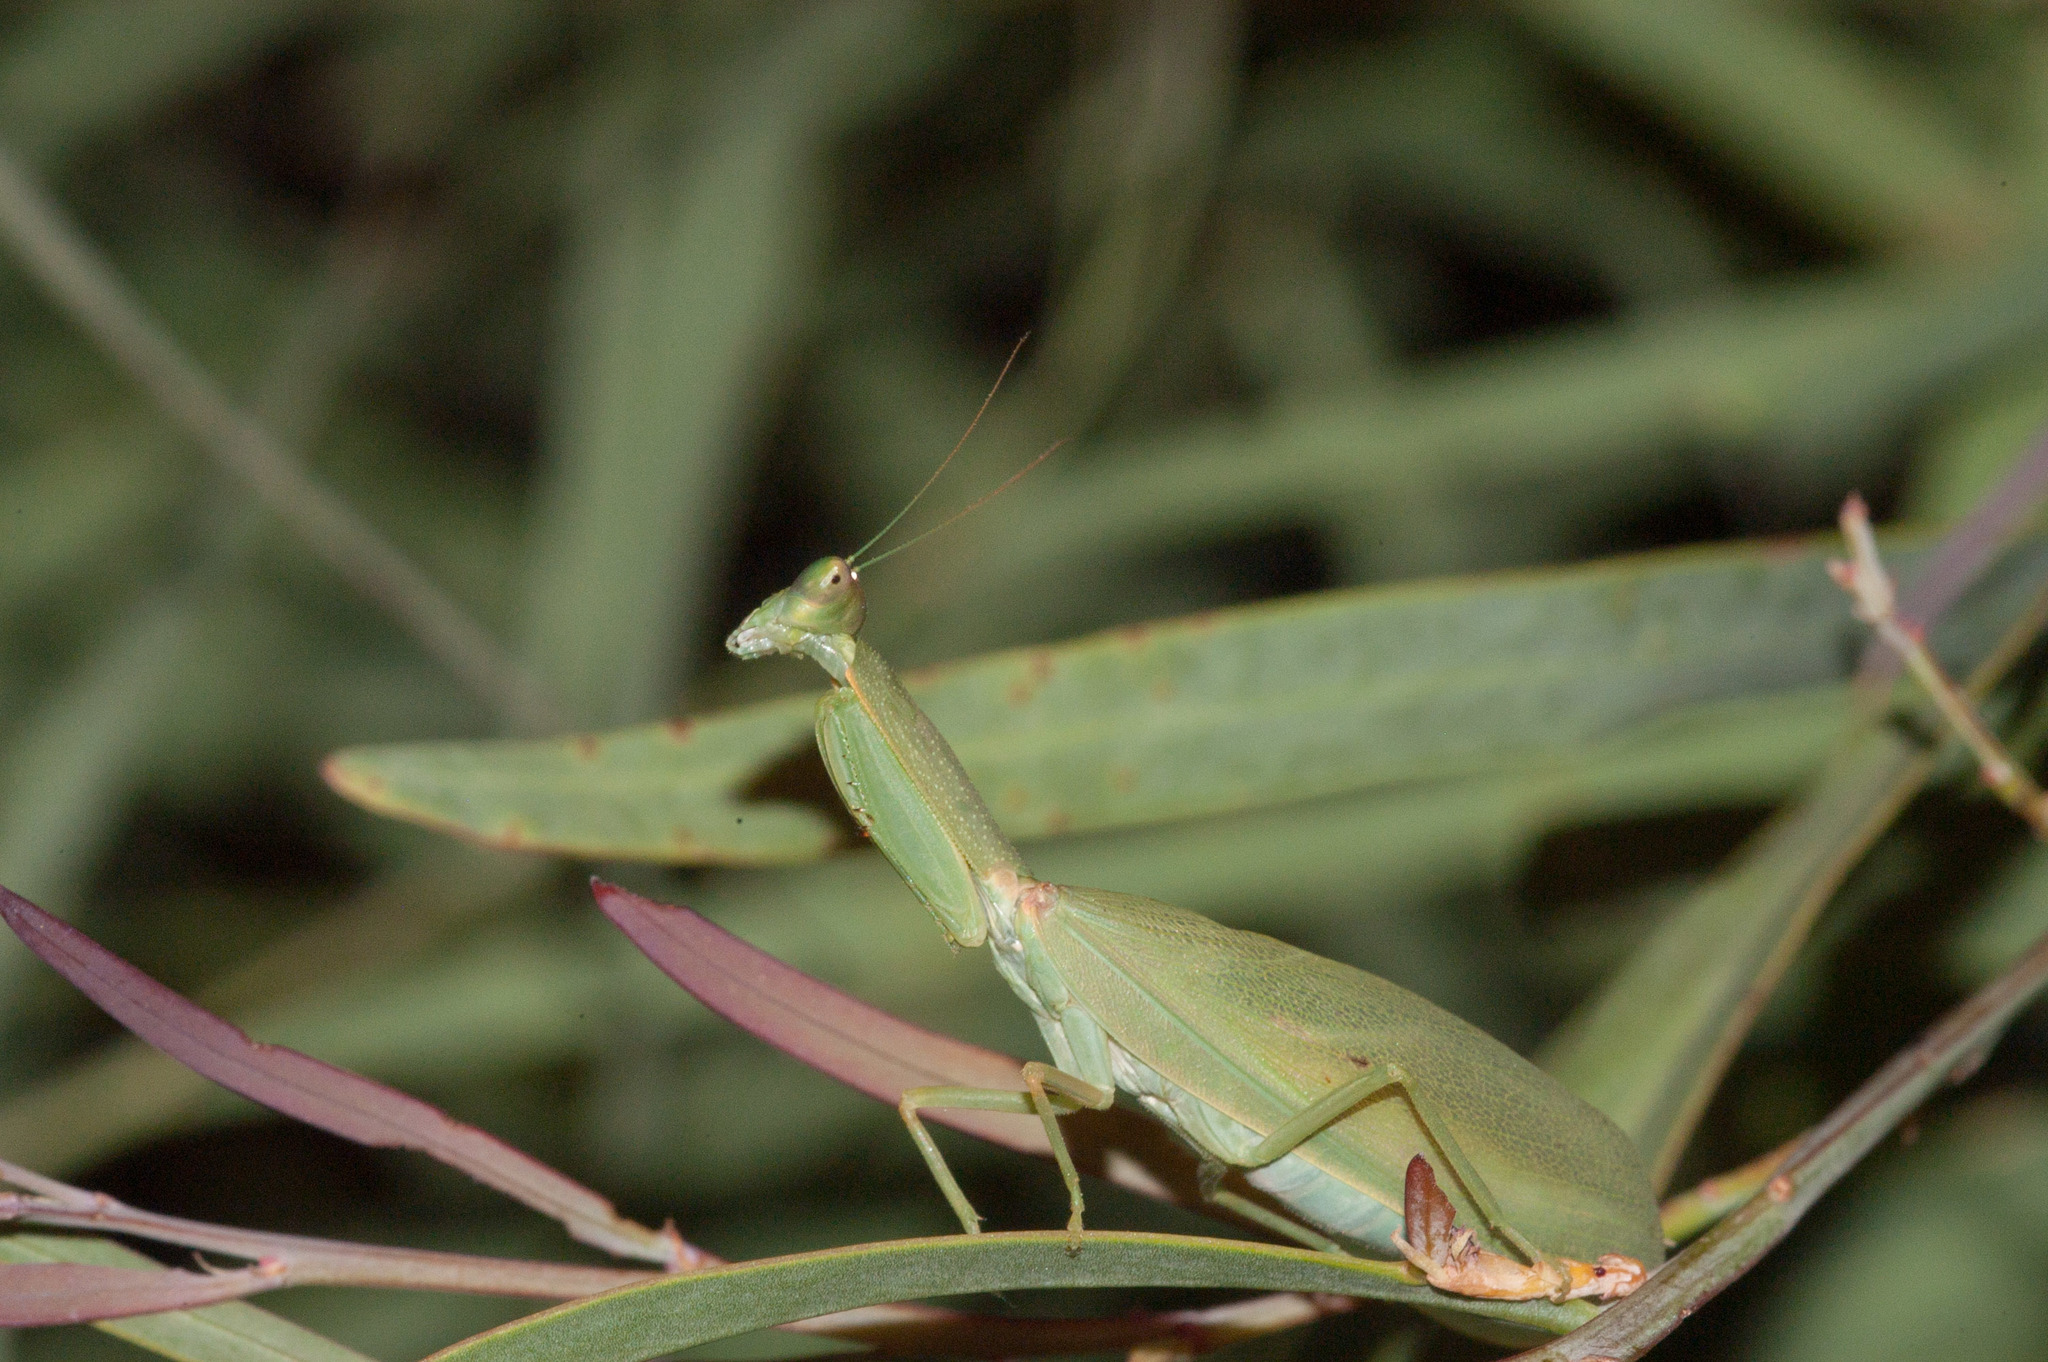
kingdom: Animalia
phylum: Arthropoda
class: Insecta
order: Mantodea
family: Mantidae
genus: Orthodera
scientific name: Orthodera ministralis
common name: Mantis
